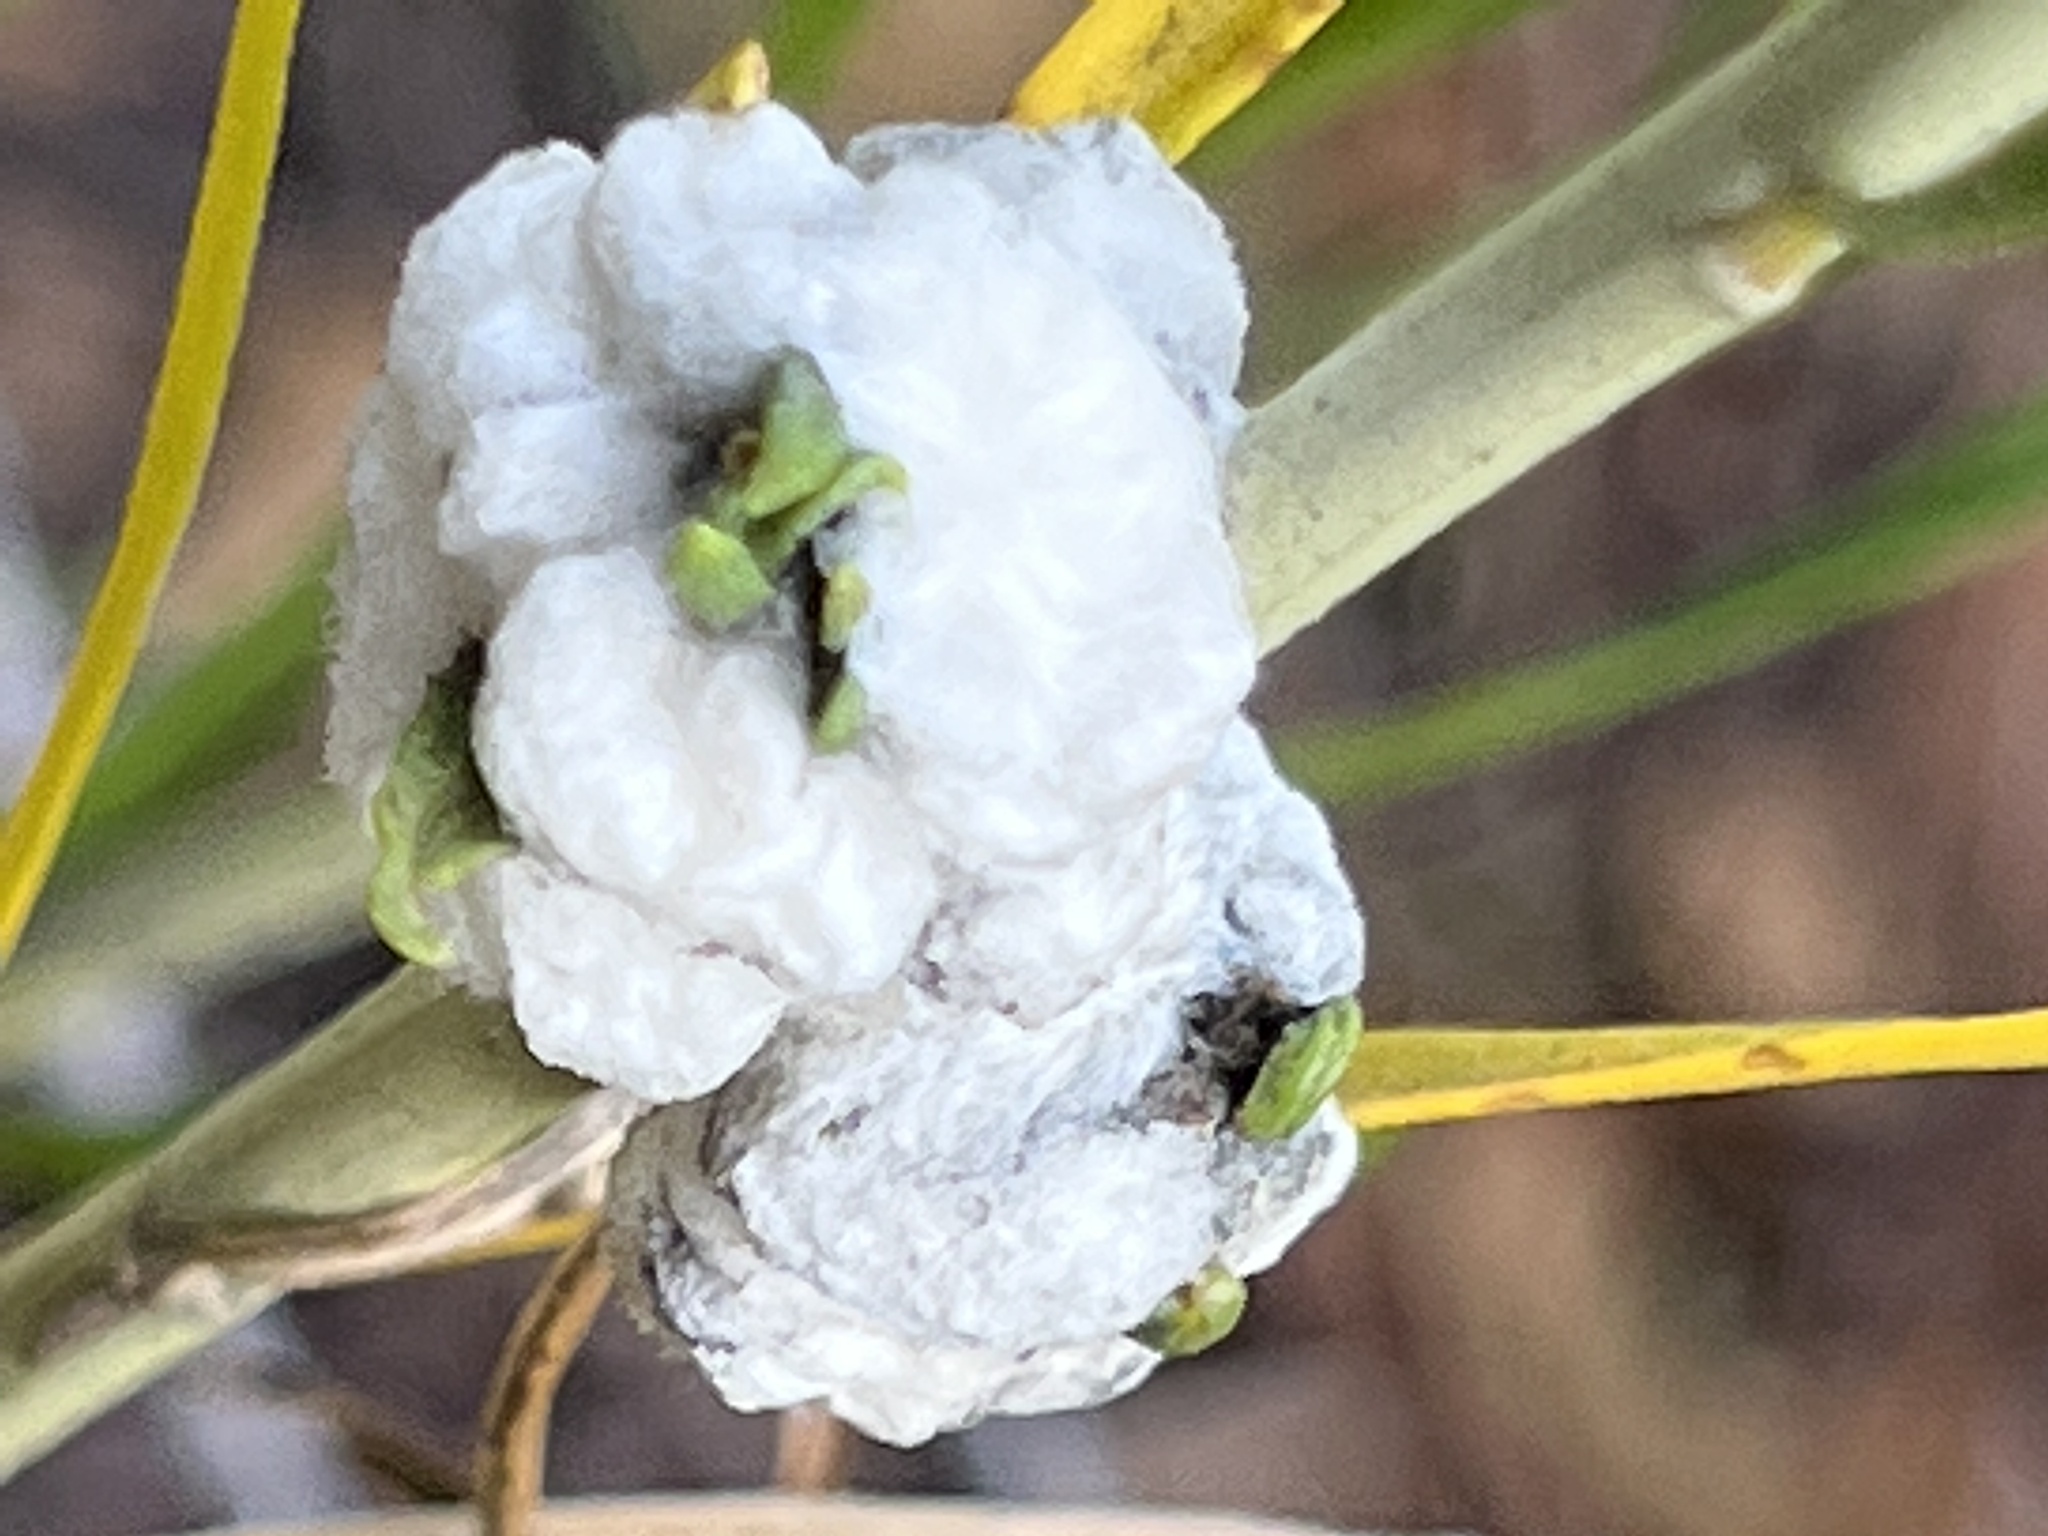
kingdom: Animalia
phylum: Arthropoda
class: Insecta
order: Diptera
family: Tephritidae
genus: Aciurina
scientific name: Aciurina bigeloviae
